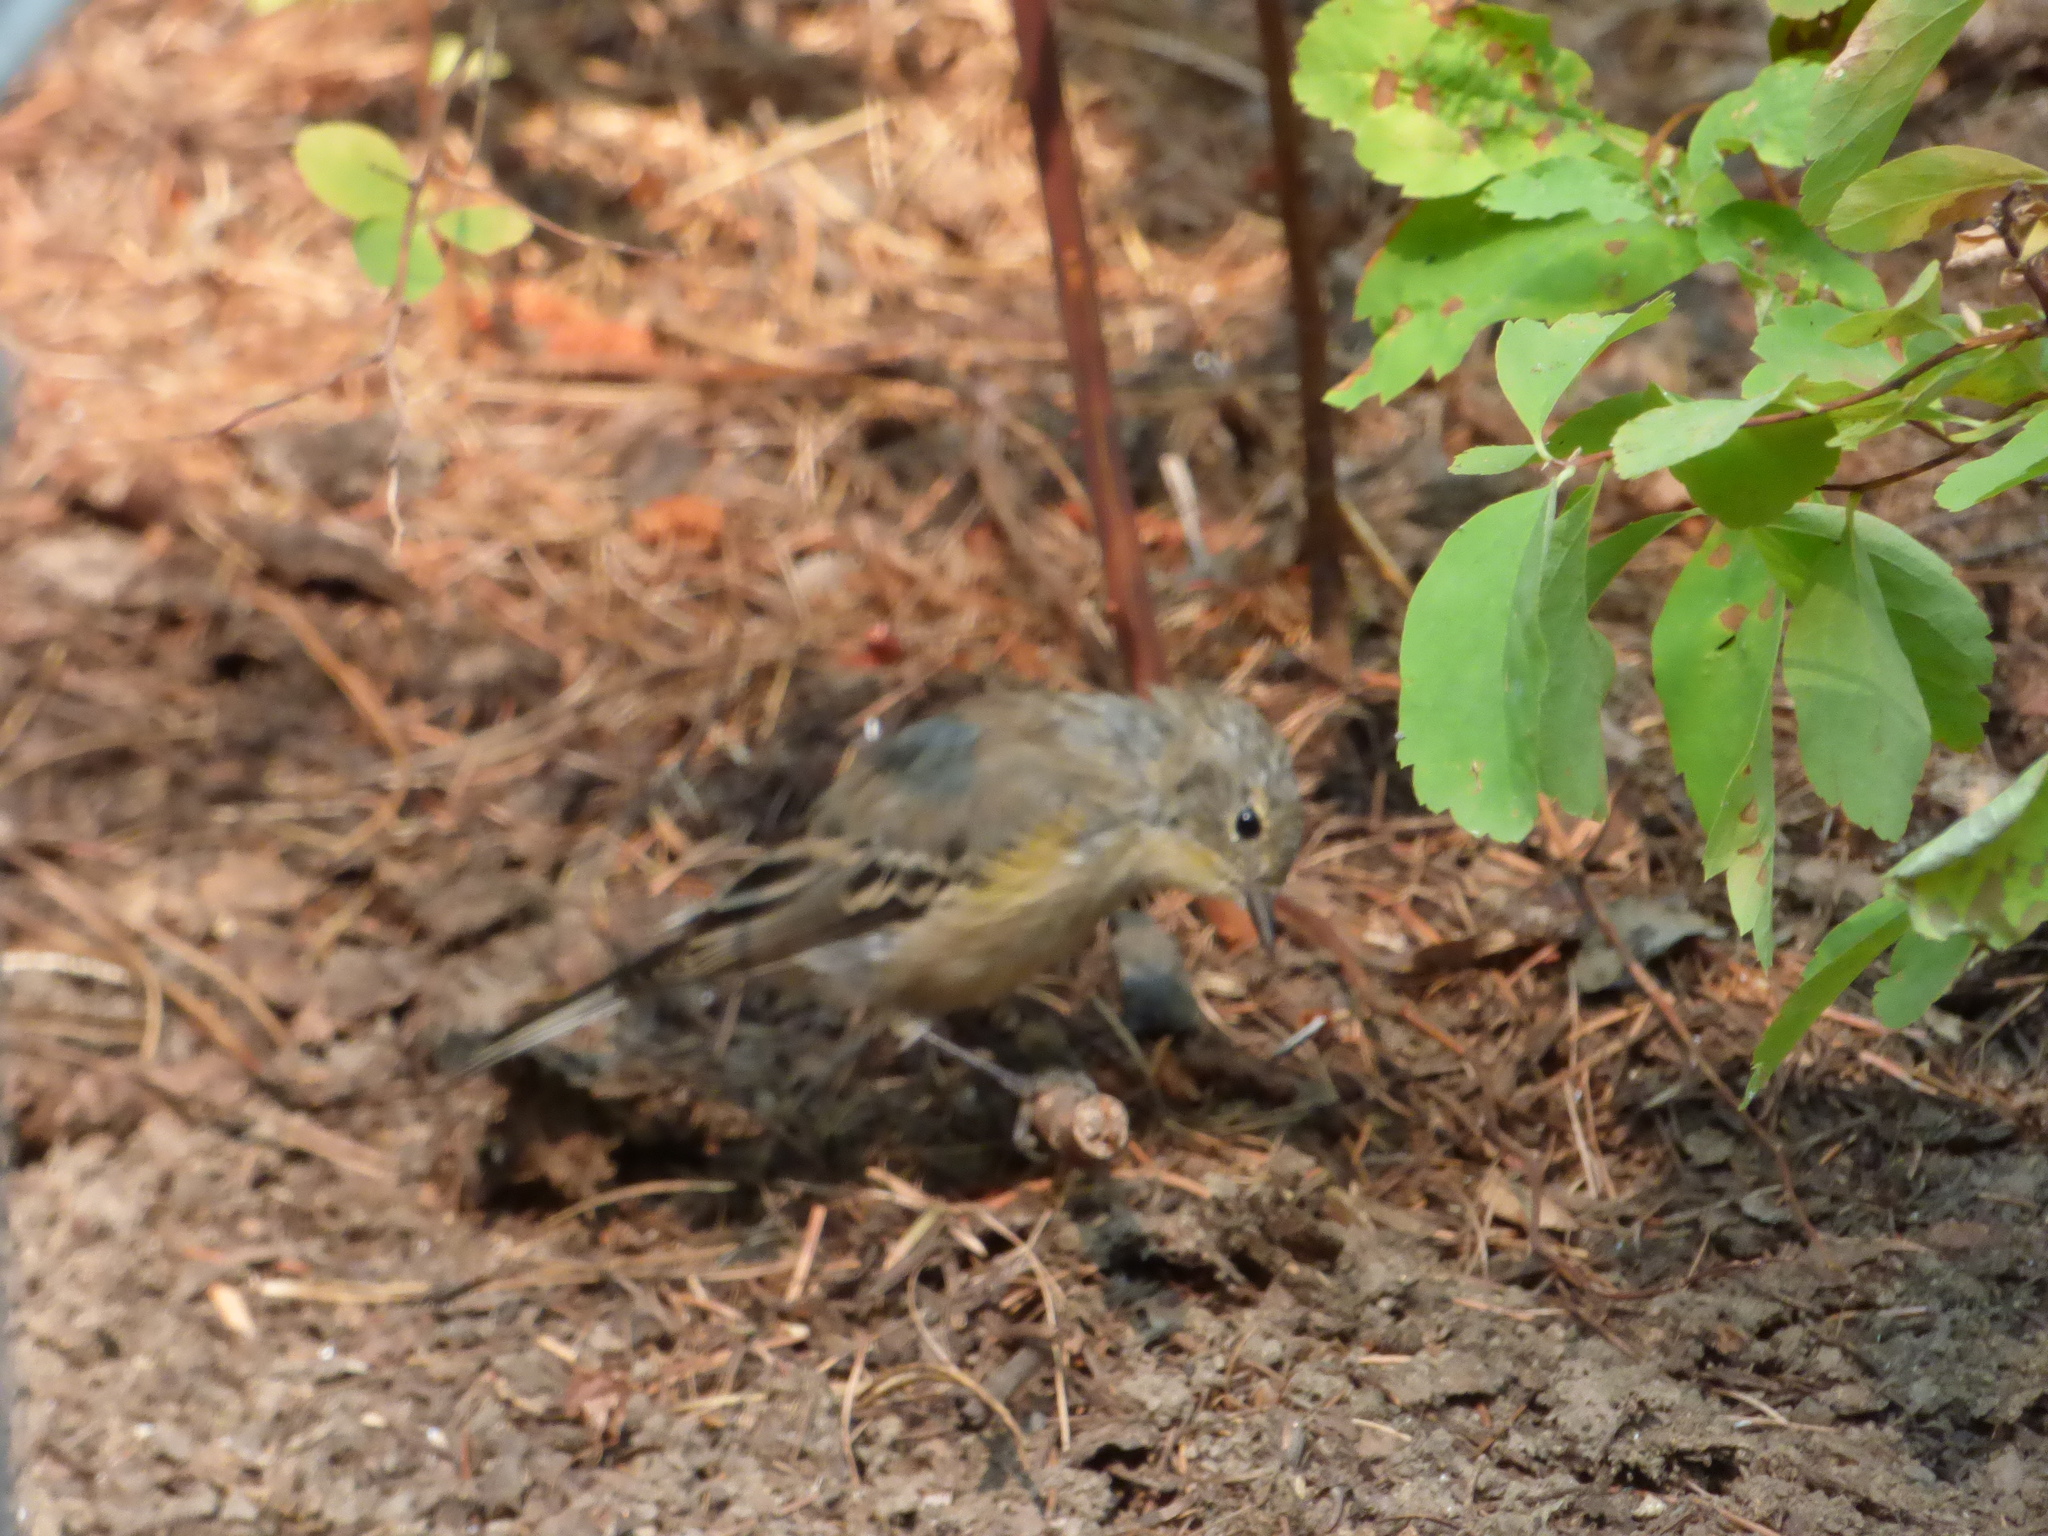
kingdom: Animalia
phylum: Chordata
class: Aves
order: Passeriformes
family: Parulidae
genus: Setophaga
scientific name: Setophaga coronata
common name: Myrtle warbler
